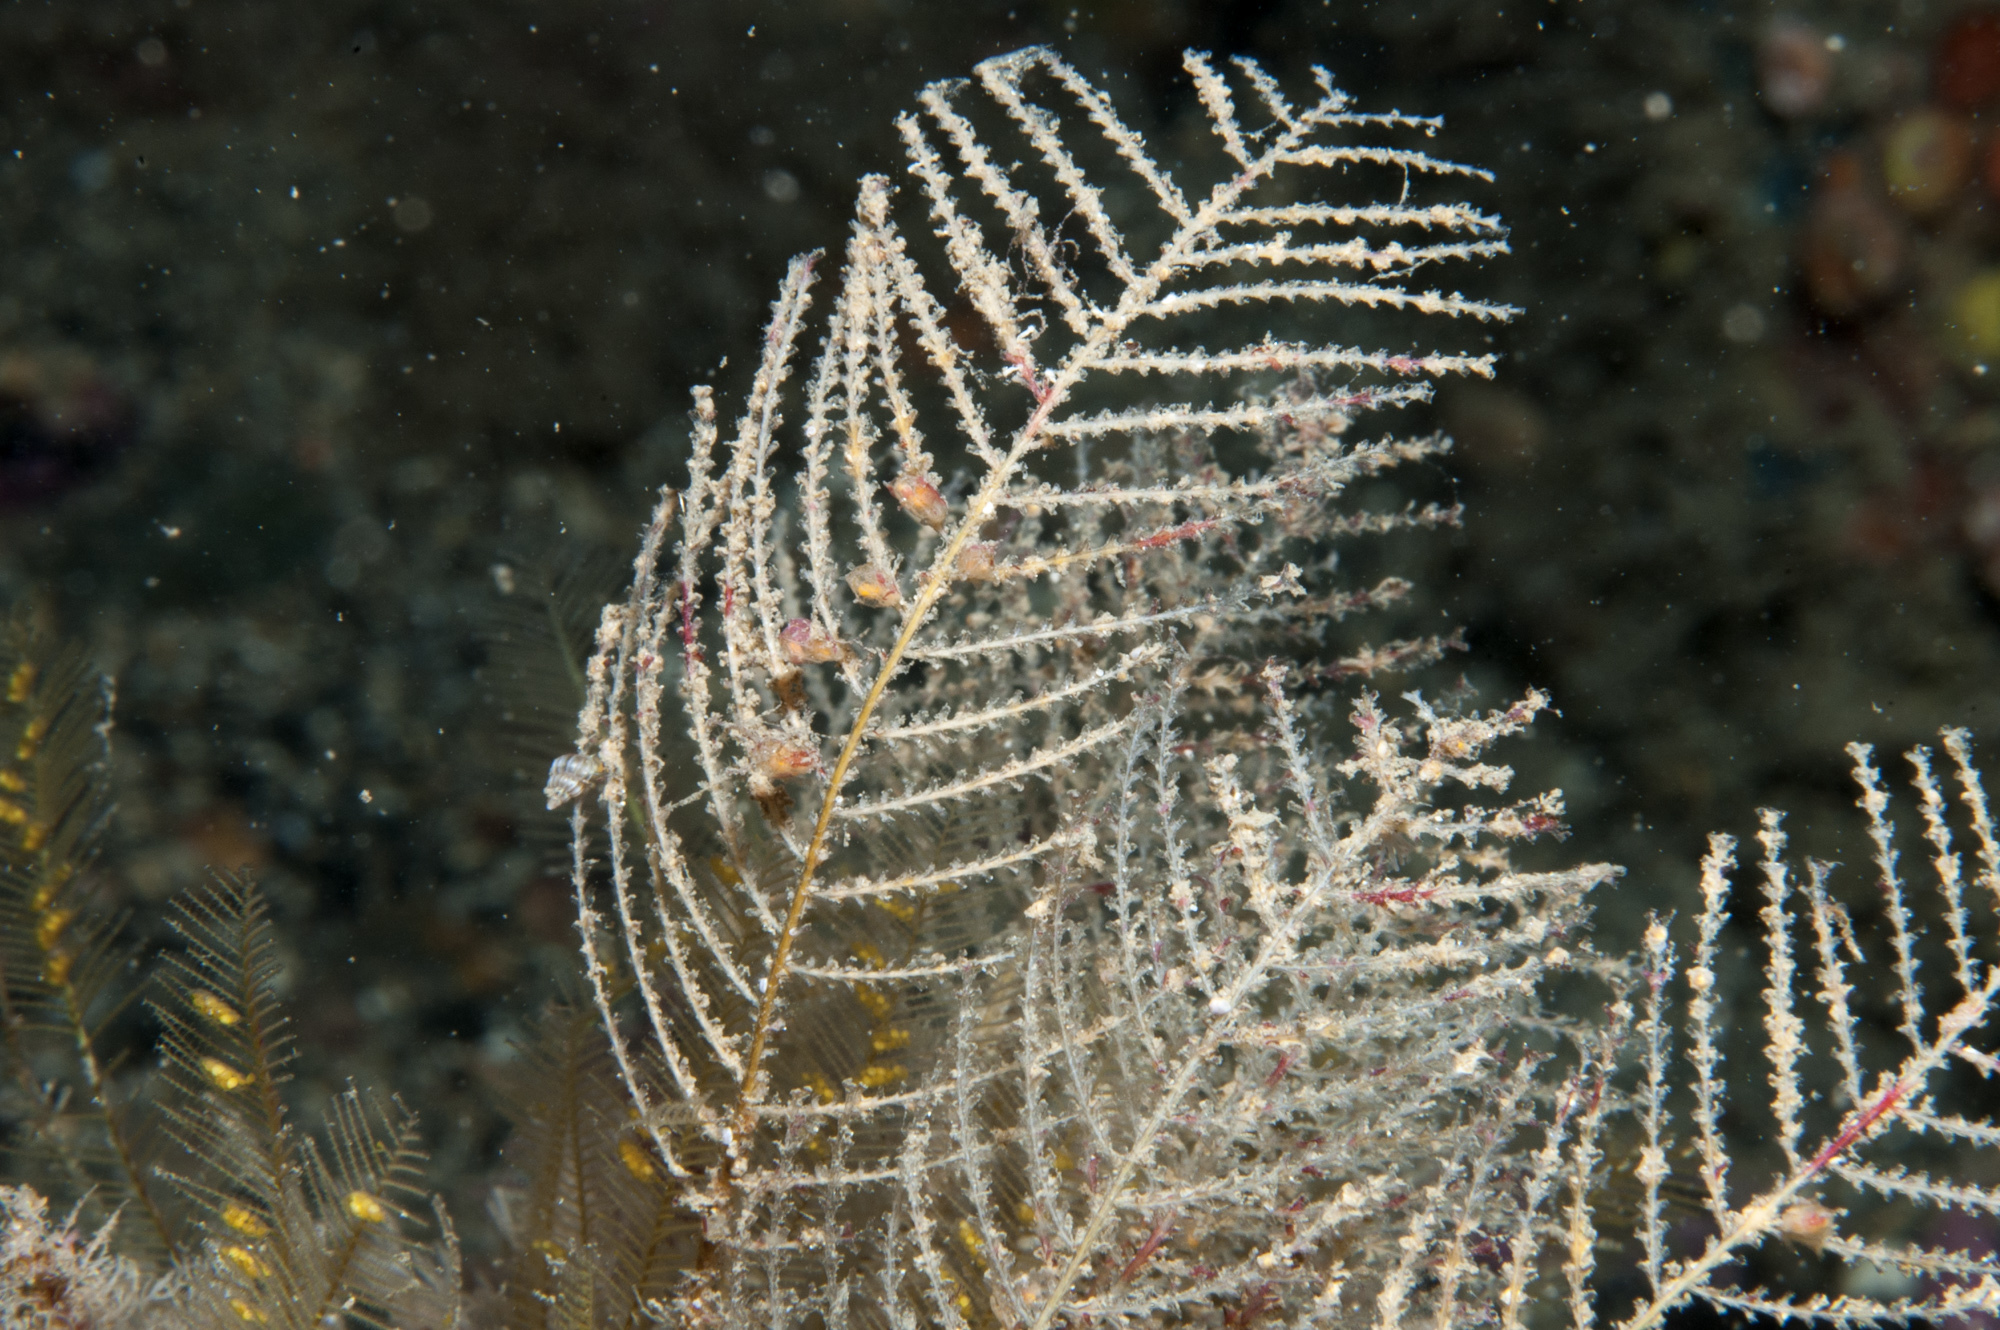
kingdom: Animalia
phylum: Cnidaria
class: Hydrozoa
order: Leptothecata
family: Sertulariidae
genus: Diphasia
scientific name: Diphasia margareta
